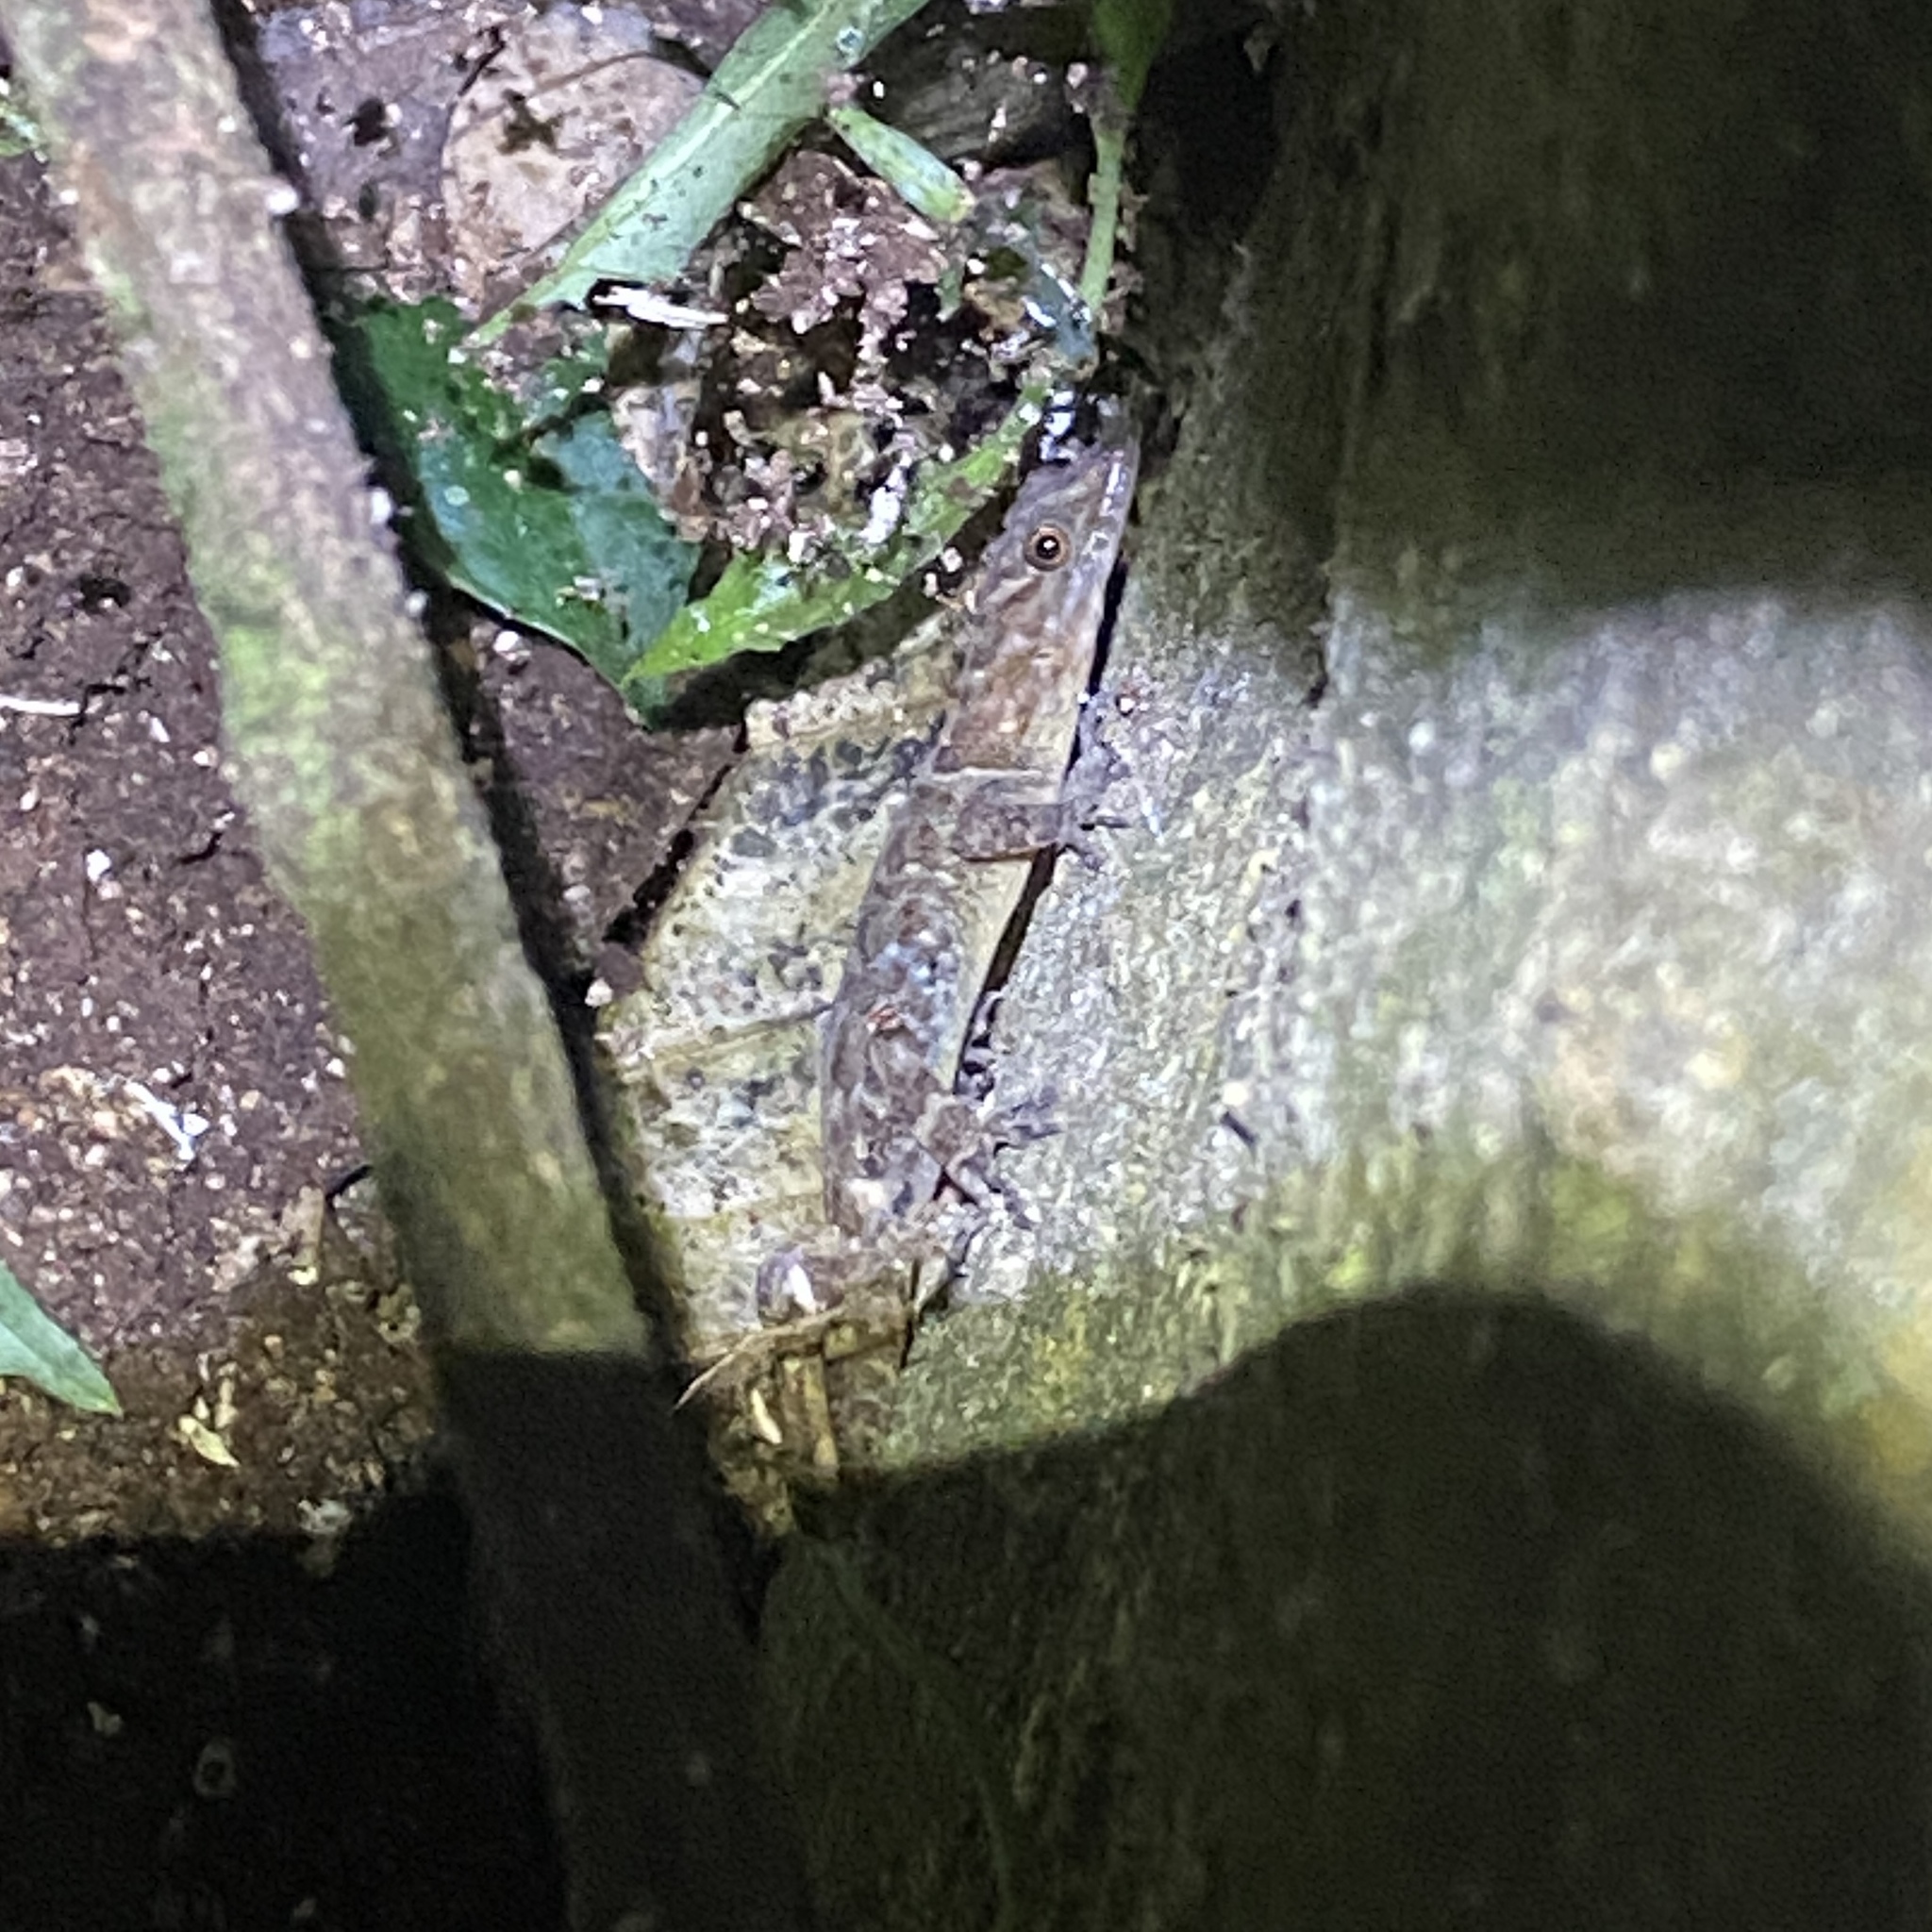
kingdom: Animalia
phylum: Chordata
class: Squamata
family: Sphaerodactylidae
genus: Gonatodes
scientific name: Gonatodes humeralis
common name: South american clawed gecko
